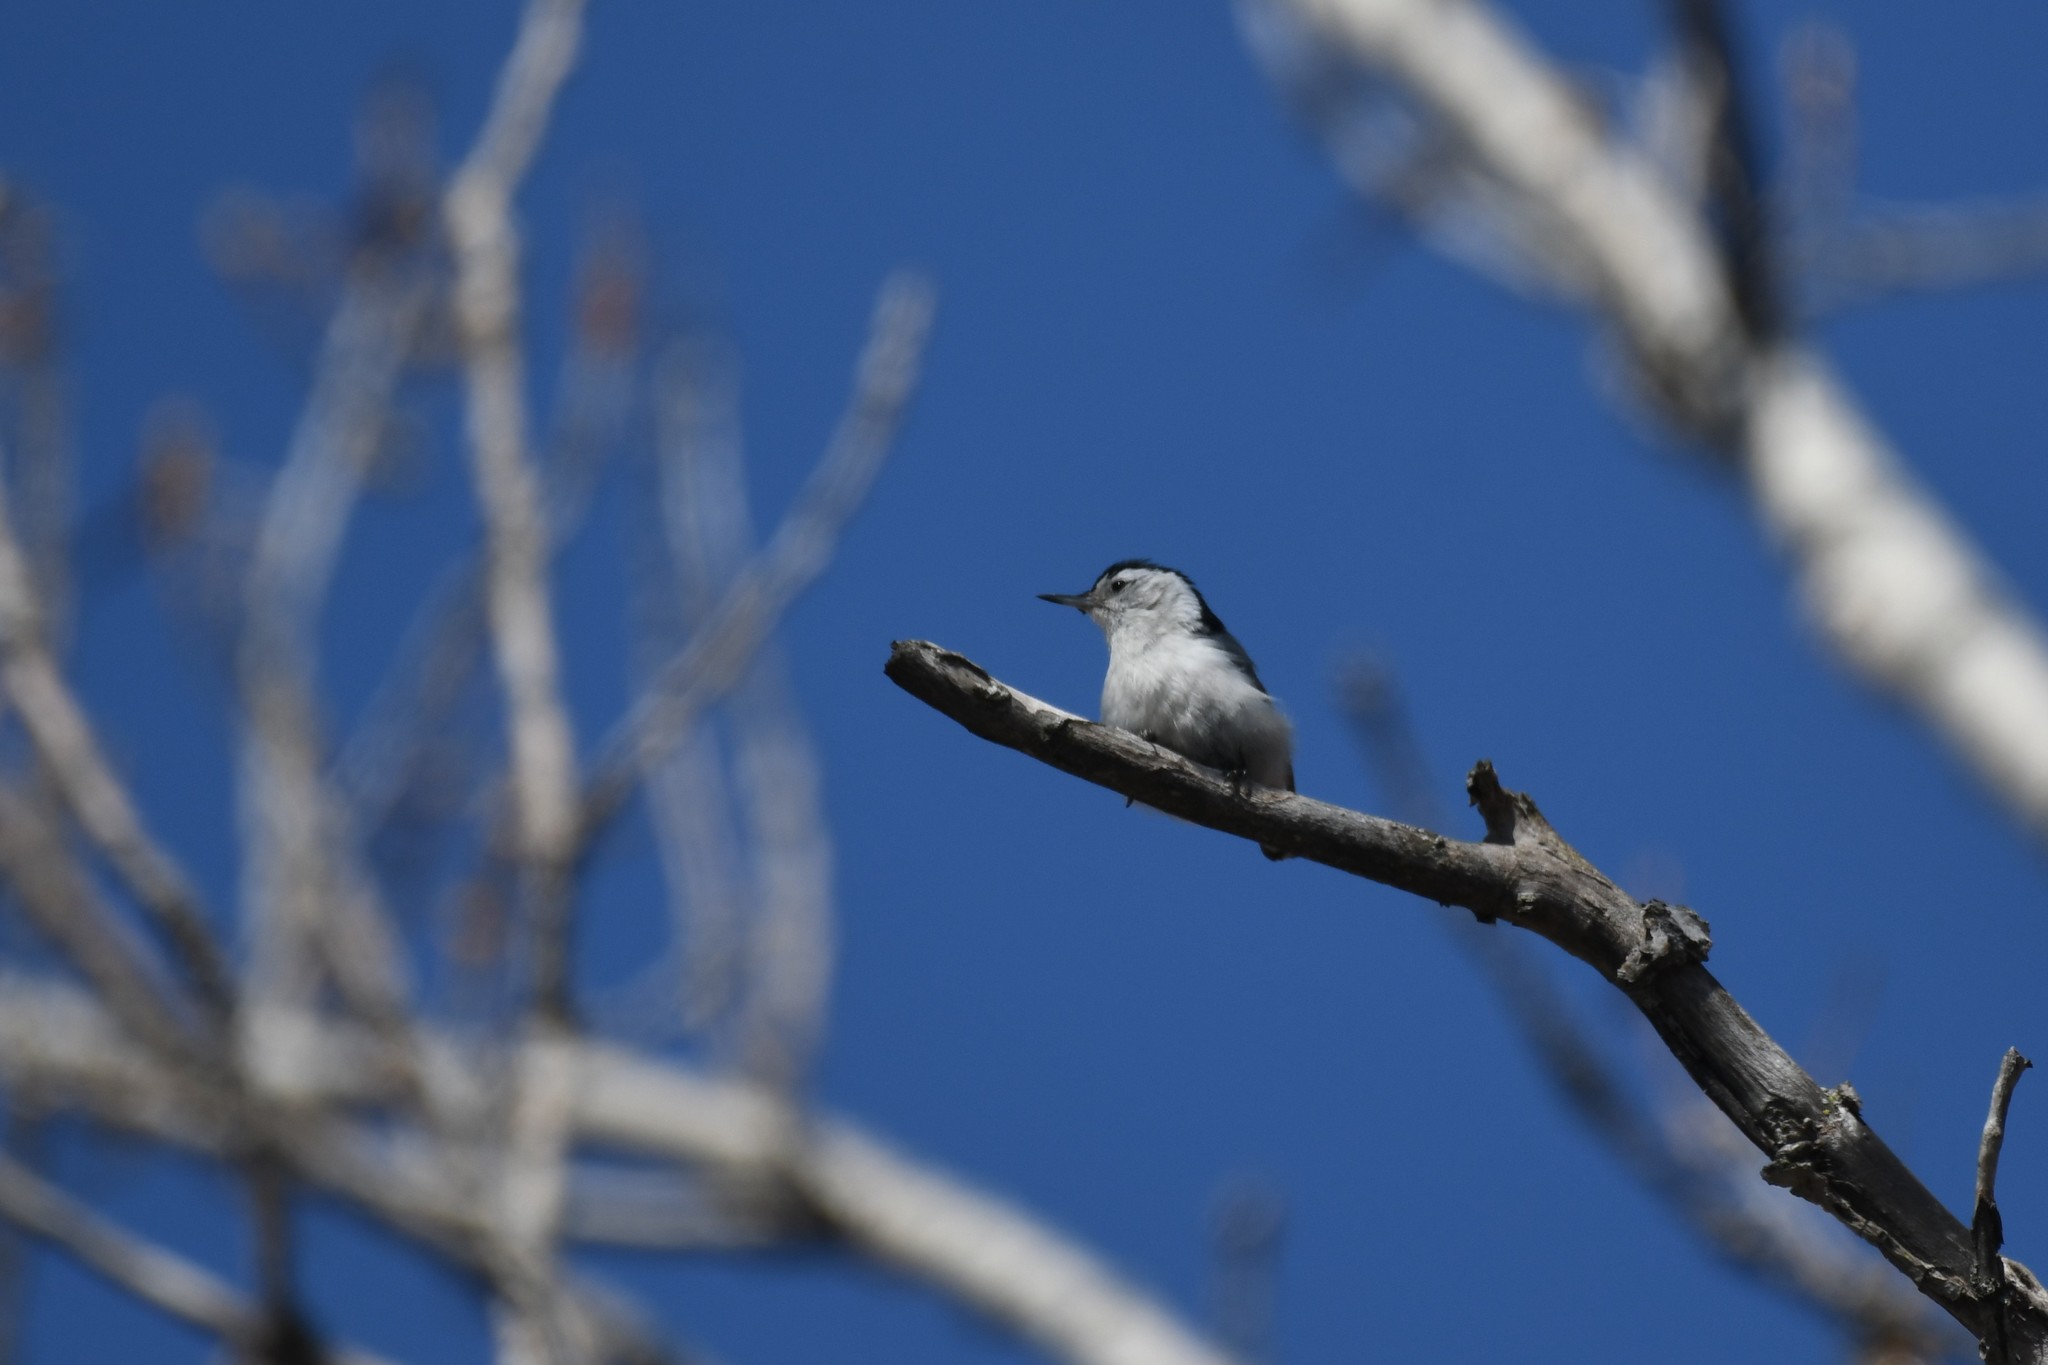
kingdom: Animalia
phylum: Chordata
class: Aves
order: Passeriformes
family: Sittidae
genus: Sitta
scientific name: Sitta carolinensis
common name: White-breasted nuthatch
